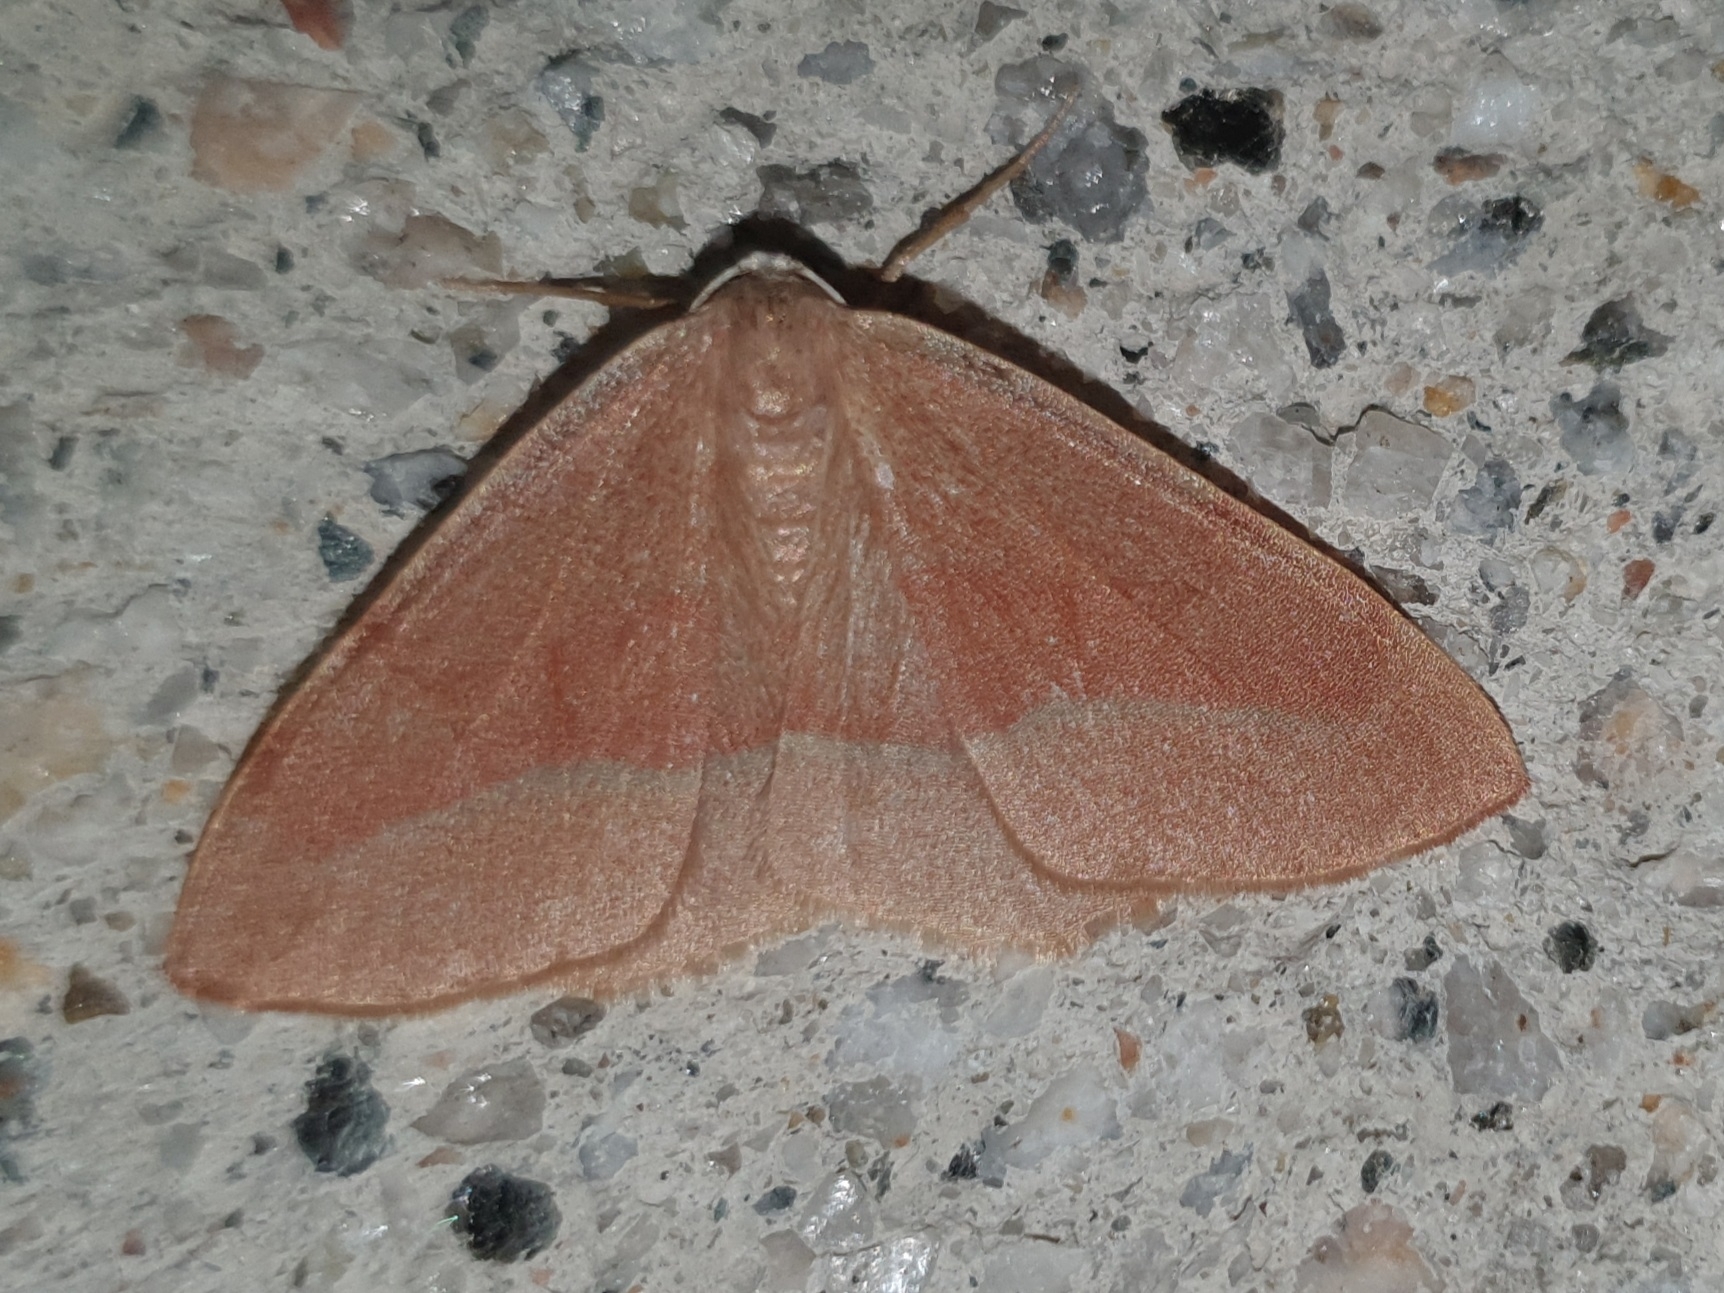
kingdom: Animalia
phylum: Arthropoda
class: Insecta
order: Lepidoptera
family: Geometridae
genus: Hylaea
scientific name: Hylaea fasciaria
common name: Barred red
